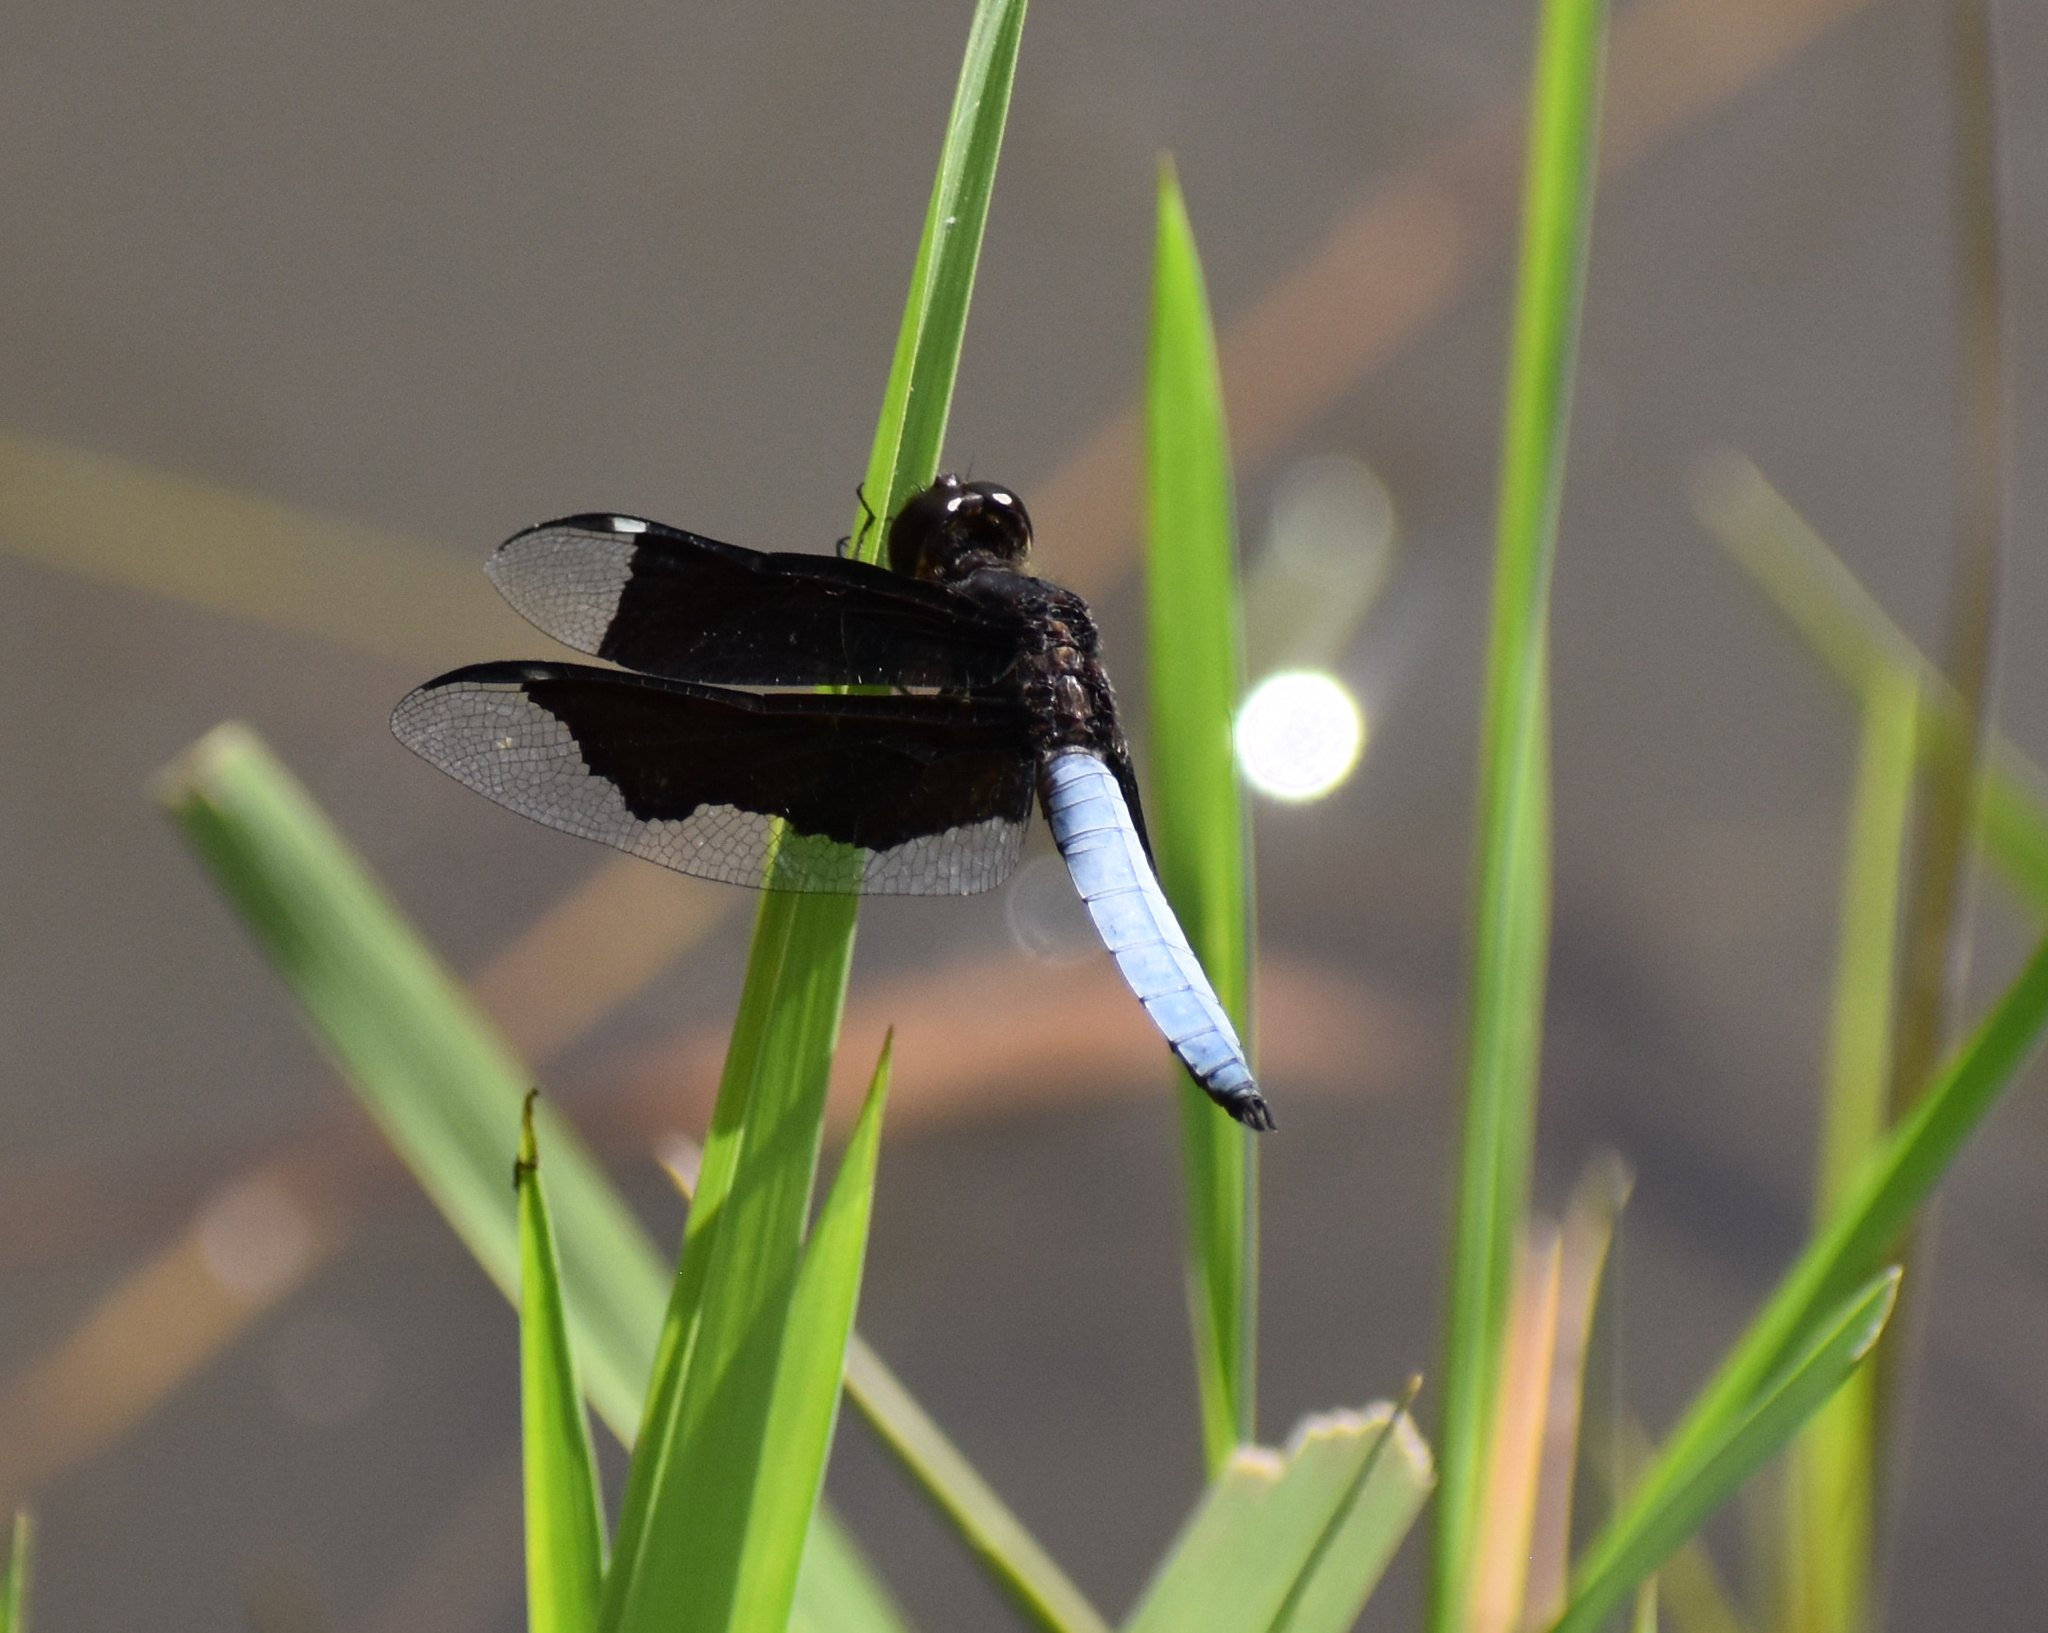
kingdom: Animalia
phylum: Arthropoda
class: Insecta
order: Odonata
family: Libellulidae
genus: Palpopleura
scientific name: Palpopleura lucia
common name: Lucia widow
